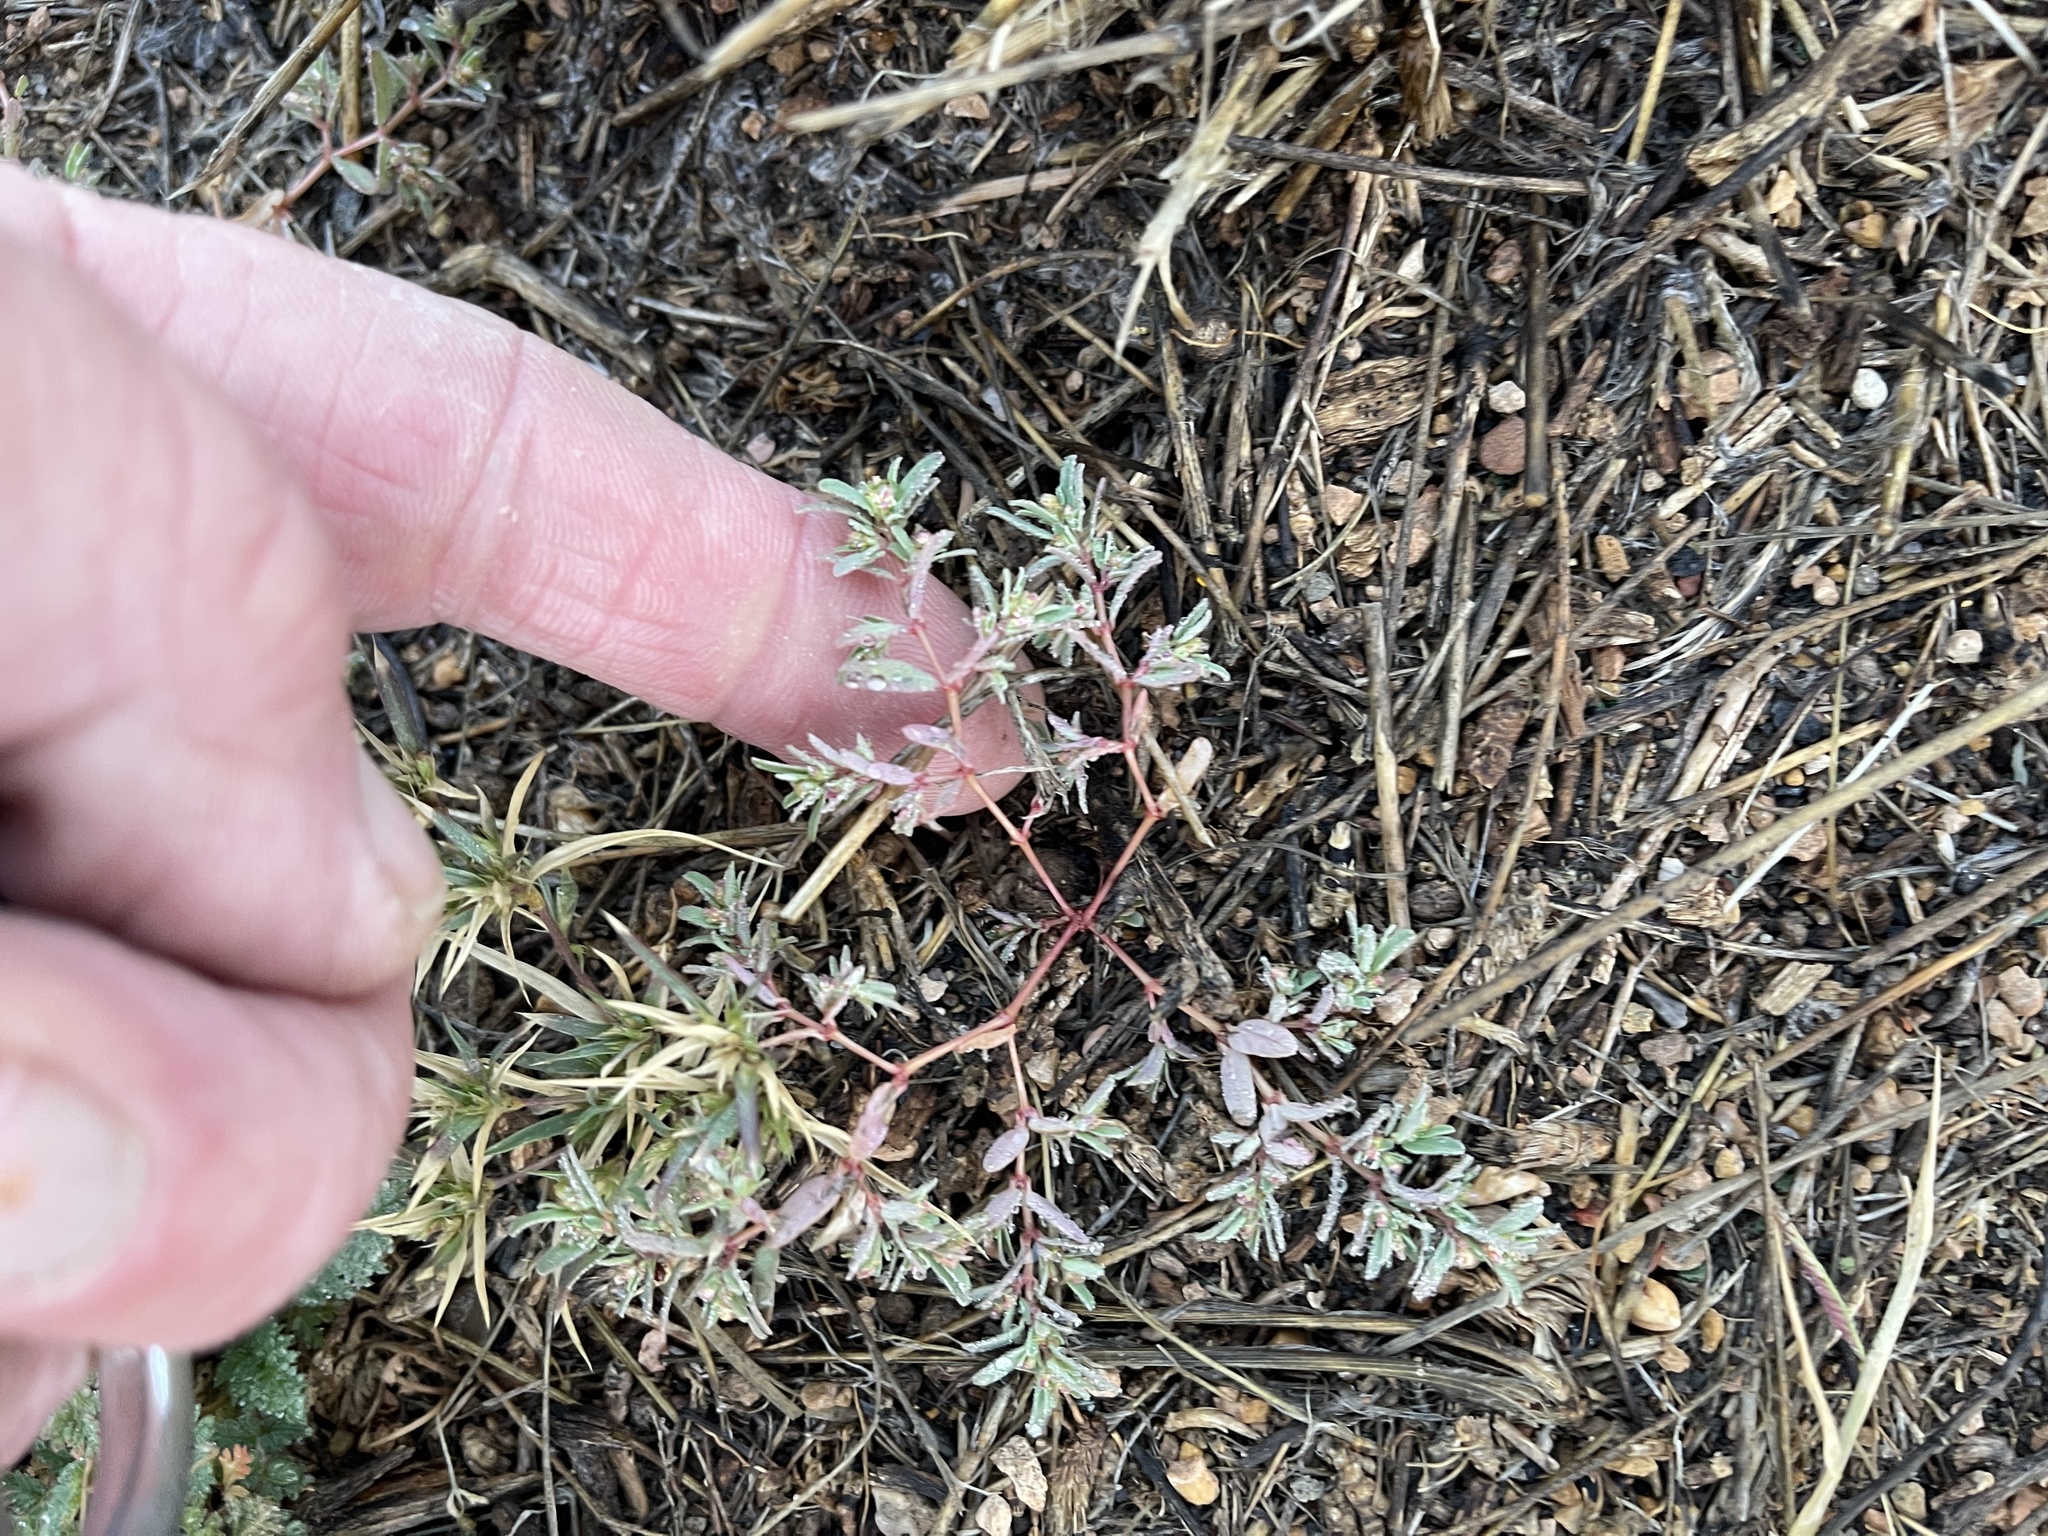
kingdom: Plantae
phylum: Tracheophyta
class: Magnoliopsida
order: Malpighiales
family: Euphorbiaceae
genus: Euphorbia
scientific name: Euphorbia serpillifolia
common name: Thyme-leaf spurge
